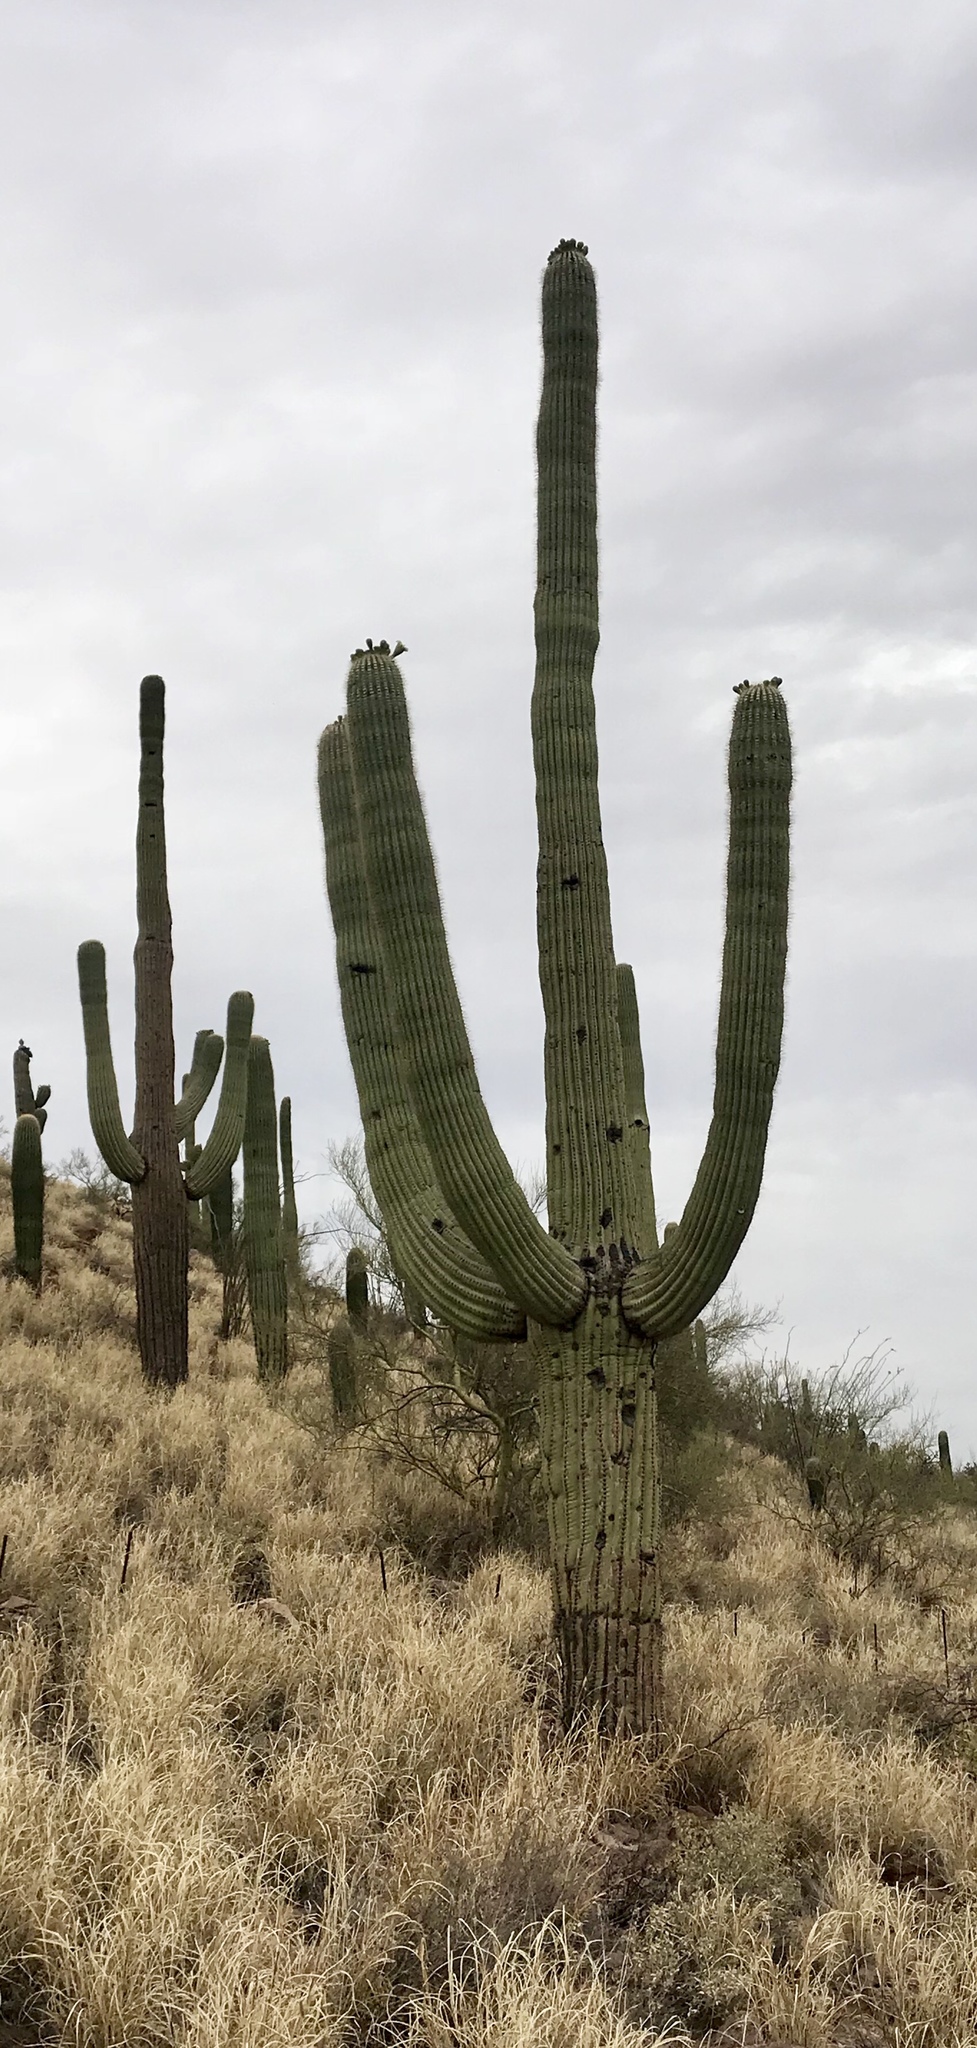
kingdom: Plantae
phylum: Tracheophyta
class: Magnoliopsida
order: Caryophyllales
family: Cactaceae
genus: Carnegiea
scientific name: Carnegiea gigantea
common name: Saguaro
